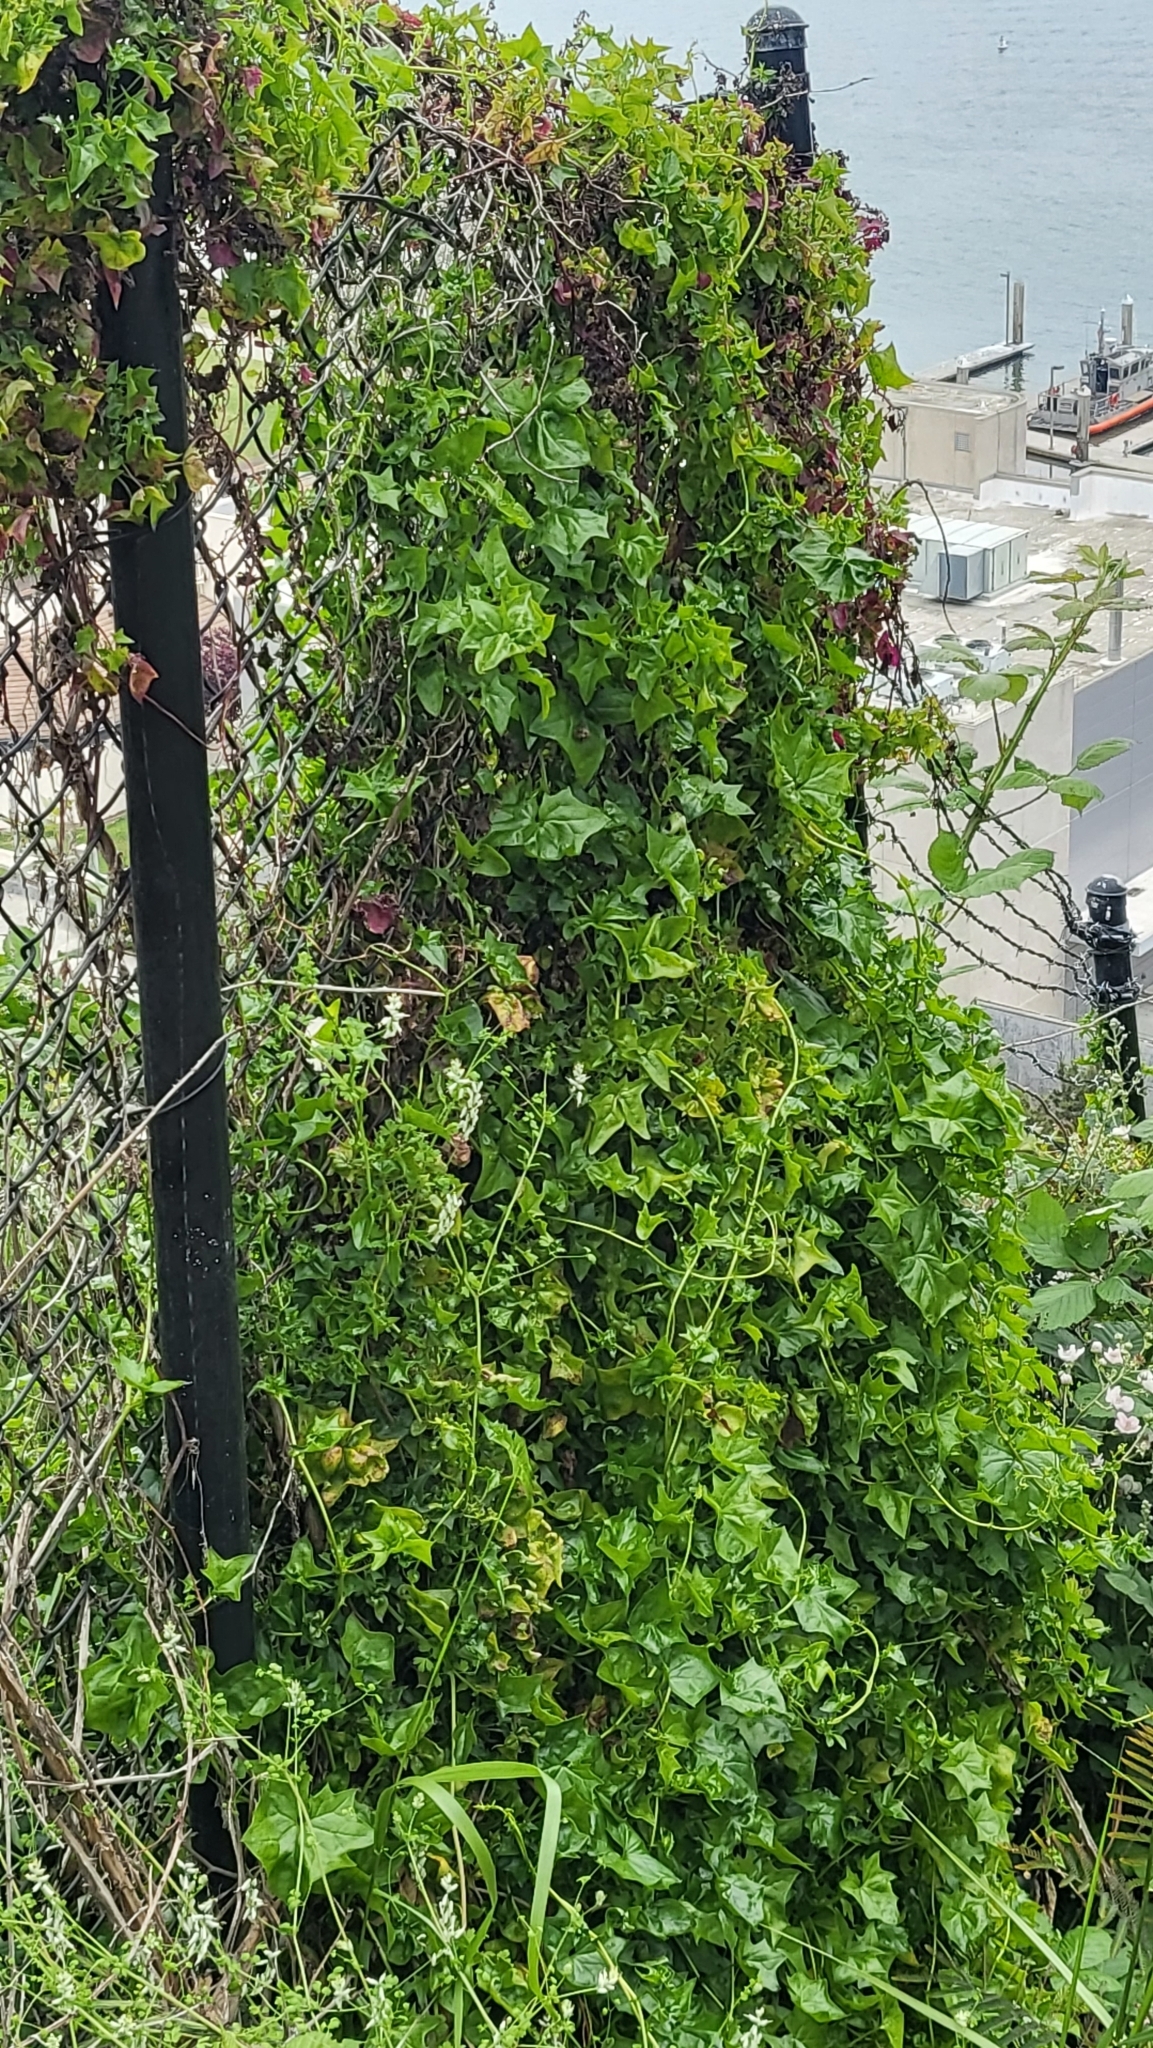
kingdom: Plantae
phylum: Tracheophyta
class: Magnoliopsida
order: Asterales
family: Asteraceae
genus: Delairea
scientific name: Delairea odorata
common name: Cape-ivy
